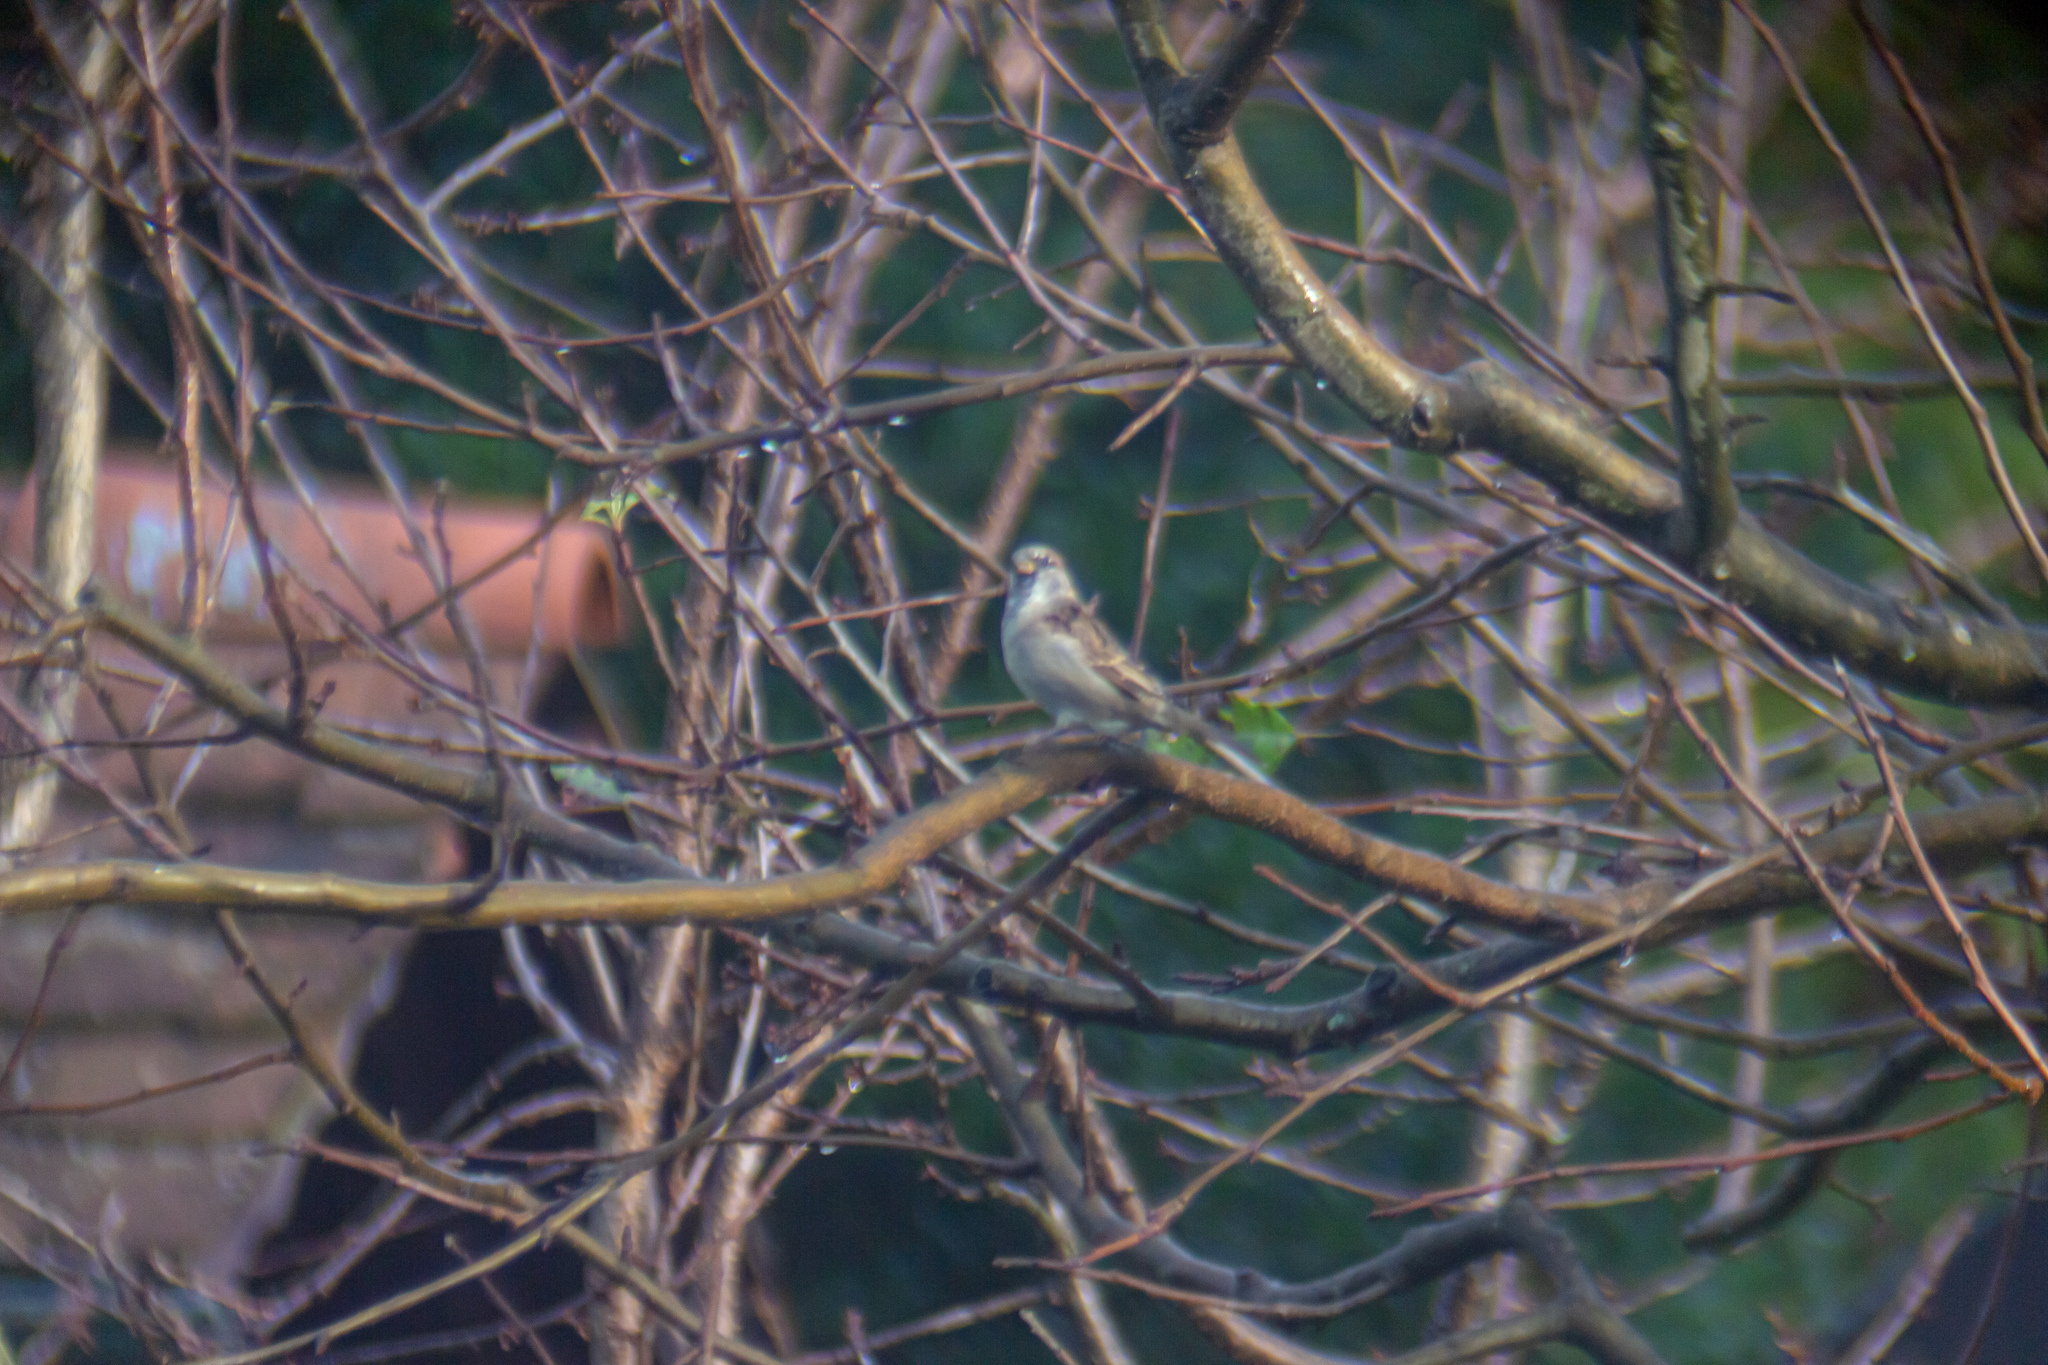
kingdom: Animalia
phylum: Chordata
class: Aves
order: Passeriformes
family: Passeridae
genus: Passer
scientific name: Passer domesticus
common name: House sparrow
